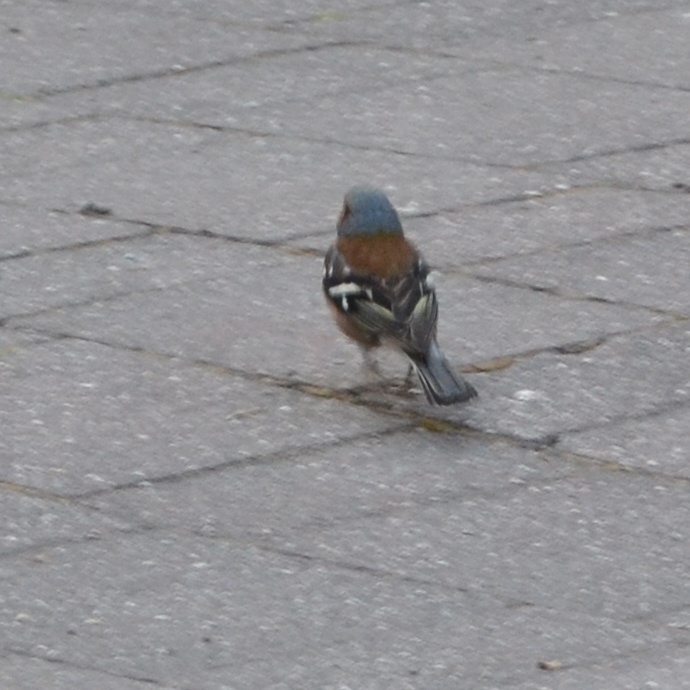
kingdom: Animalia
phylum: Chordata
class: Aves
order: Passeriformes
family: Fringillidae
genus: Fringilla
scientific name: Fringilla coelebs
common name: Common chaffinch
